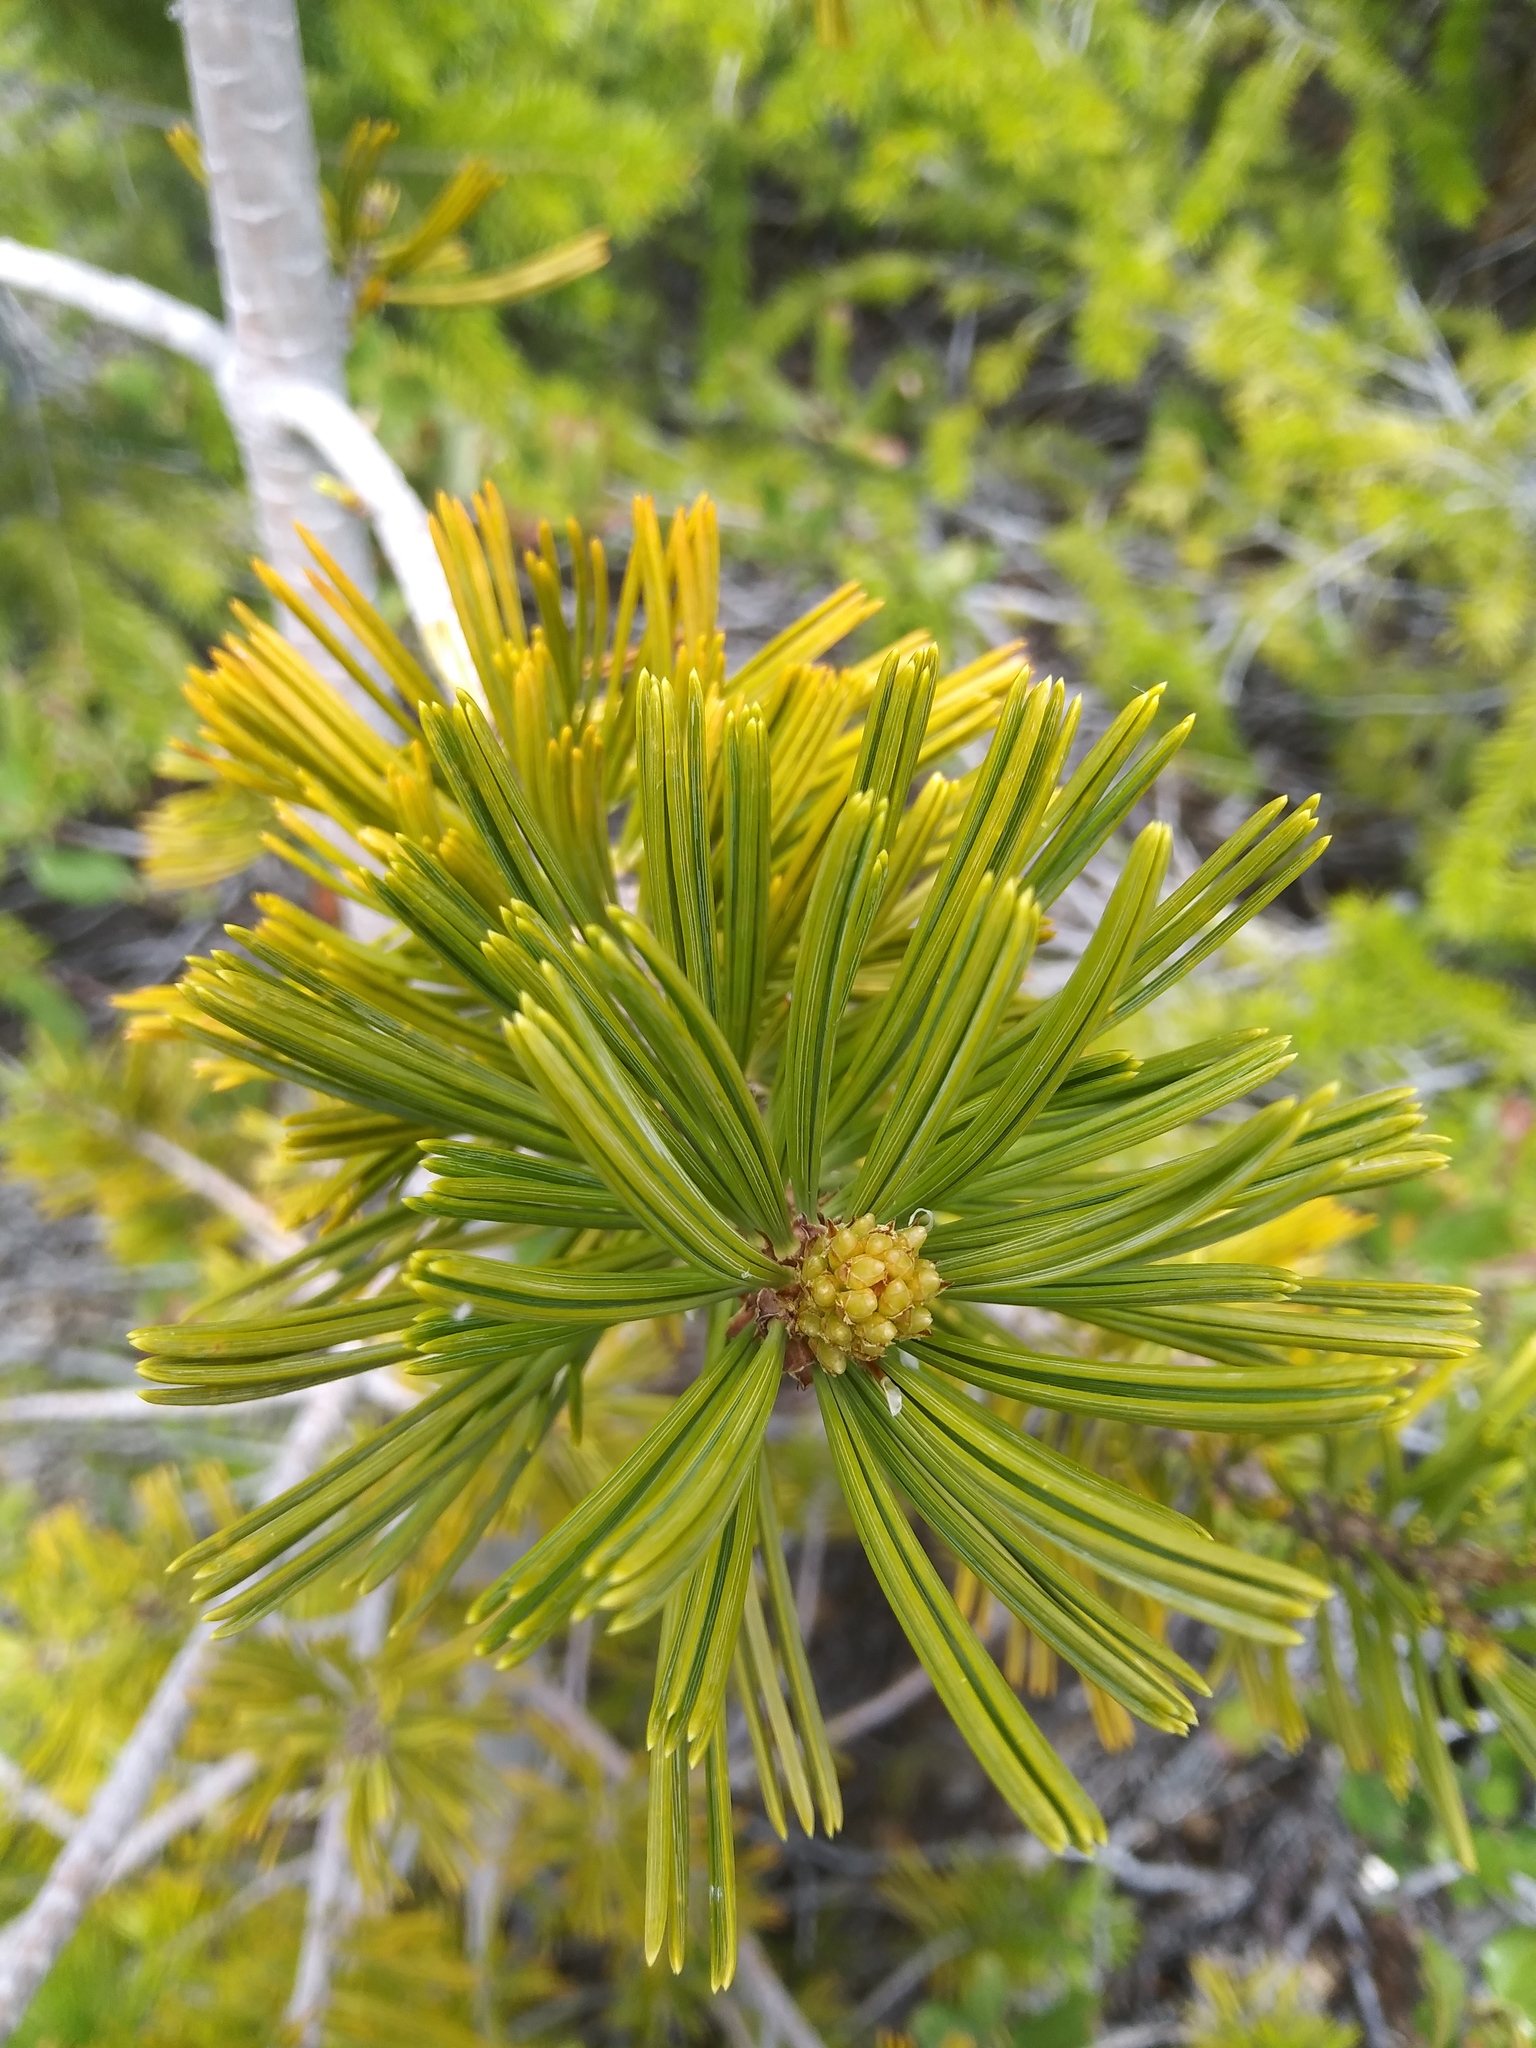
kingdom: Plantae
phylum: Tracheophyta
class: Pinopsida
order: Pinales
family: Pinaceae
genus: Pinus
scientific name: Pinus albicaulis
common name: Whitebark pine
